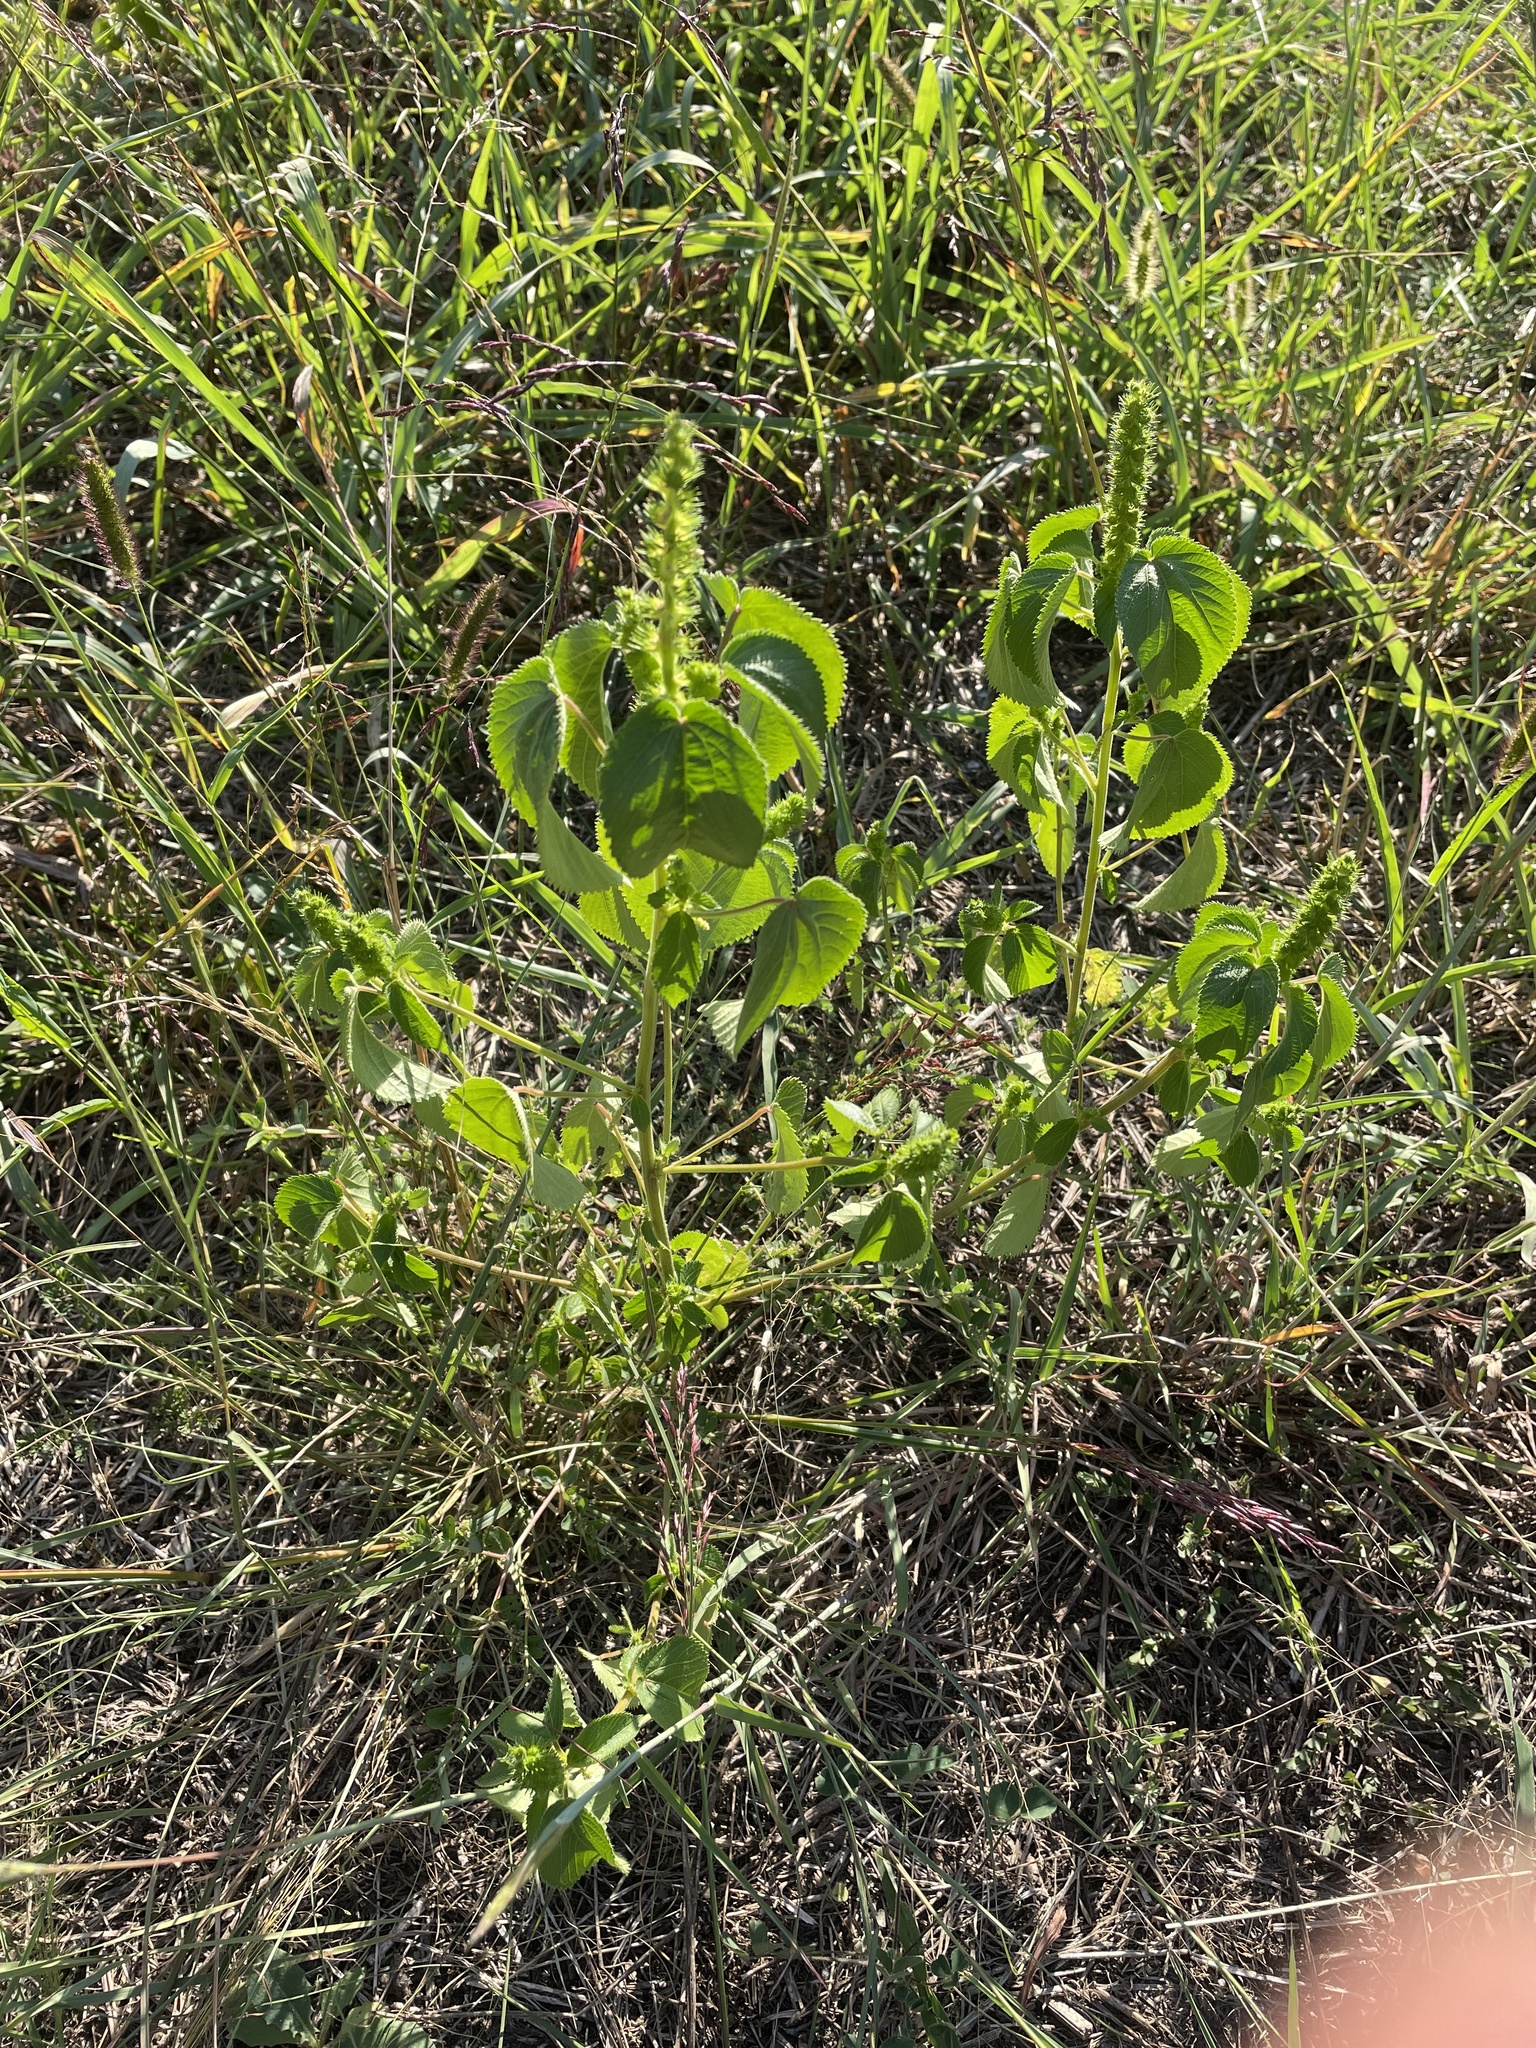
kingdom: Plantae
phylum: Tracheophyta
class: Magnoliopsida
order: Malpighiales
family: Euphorbiaceae
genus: Acalypha
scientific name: Acalypha ostryifolia
